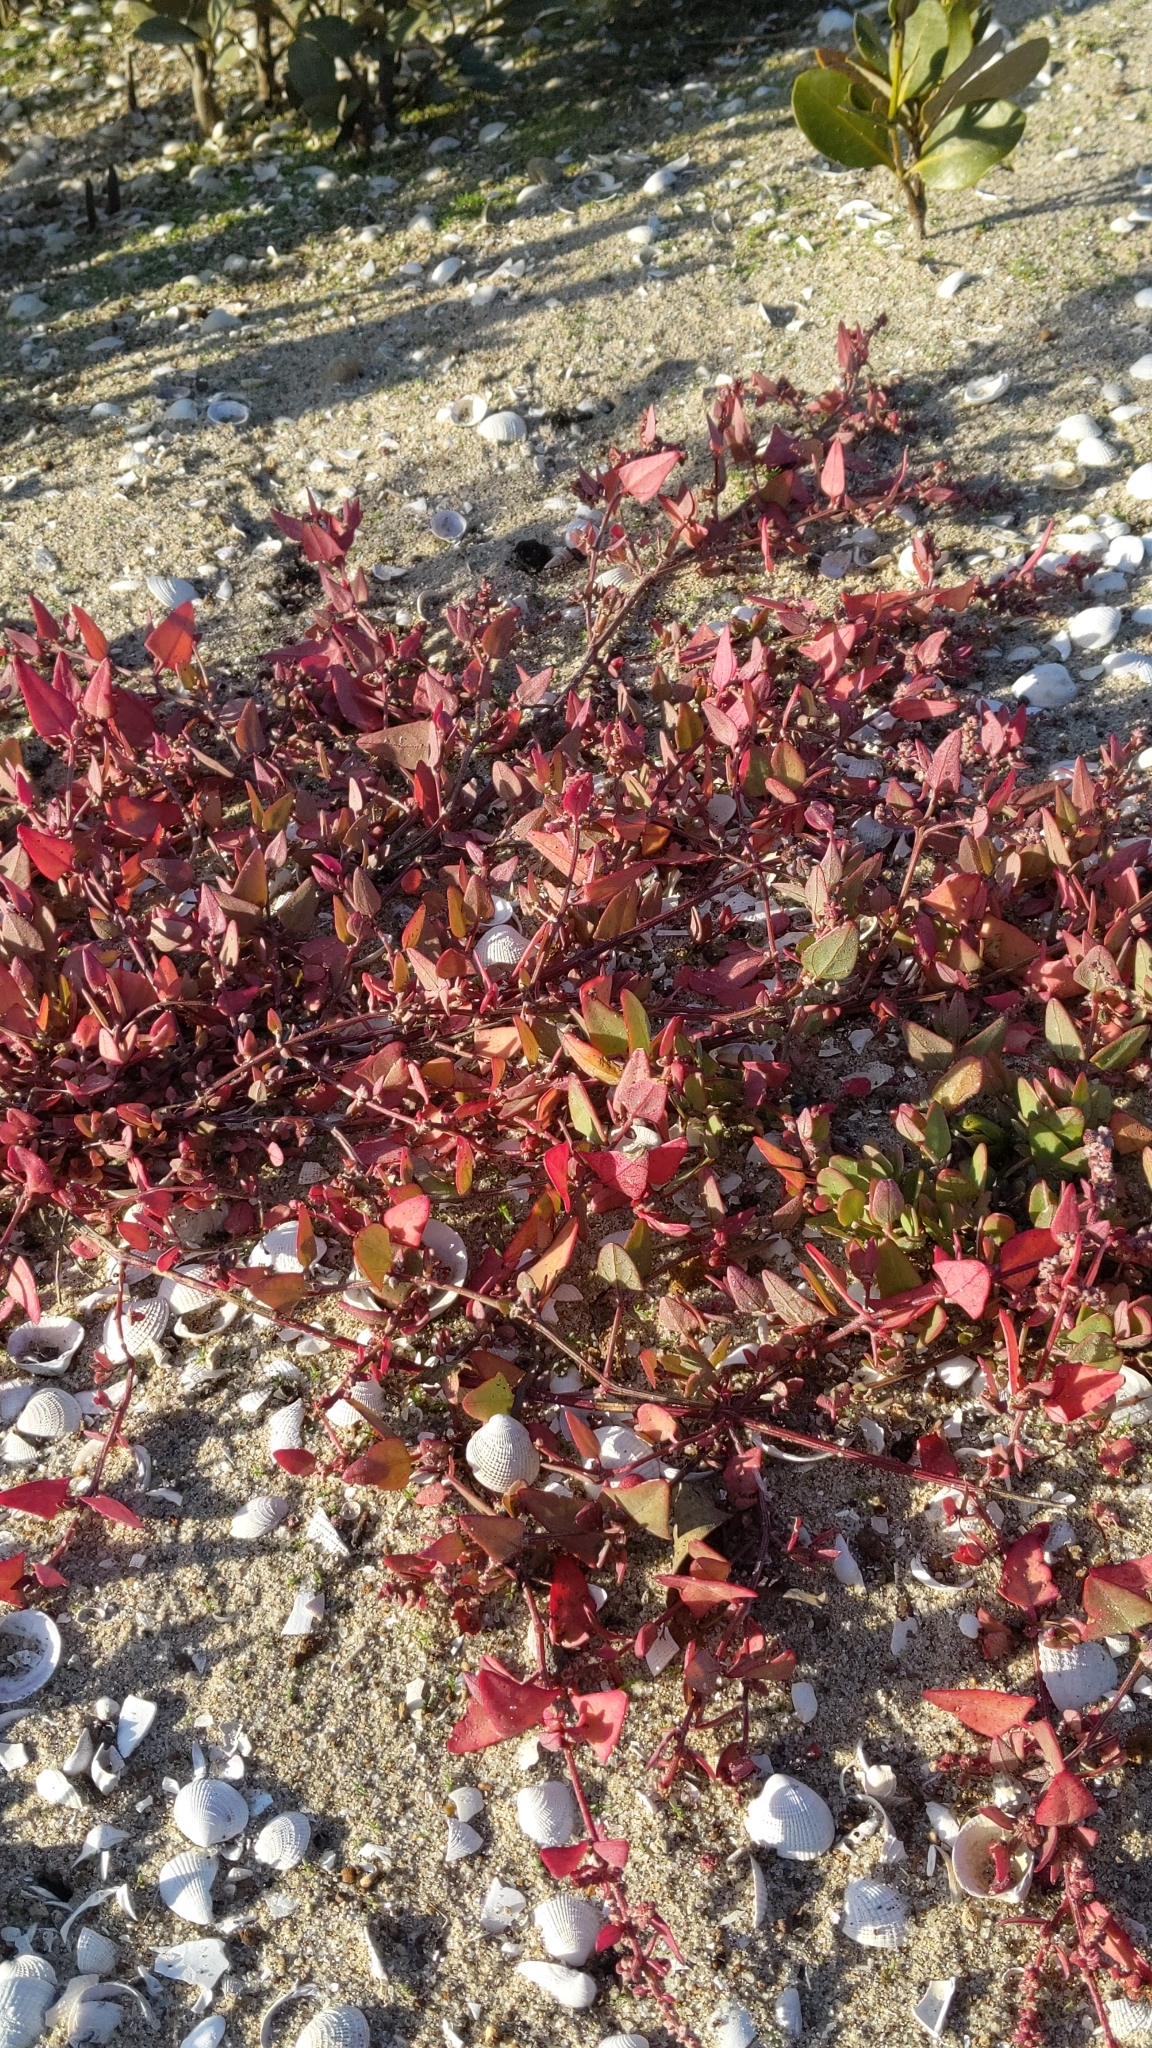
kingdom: Plantae
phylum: Tracheophyta
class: Magnoliopsida
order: Caryophyllales
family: Amaranthaceae
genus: Atriplex
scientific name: Atriplex prostrata
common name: Spear-leaved orache
